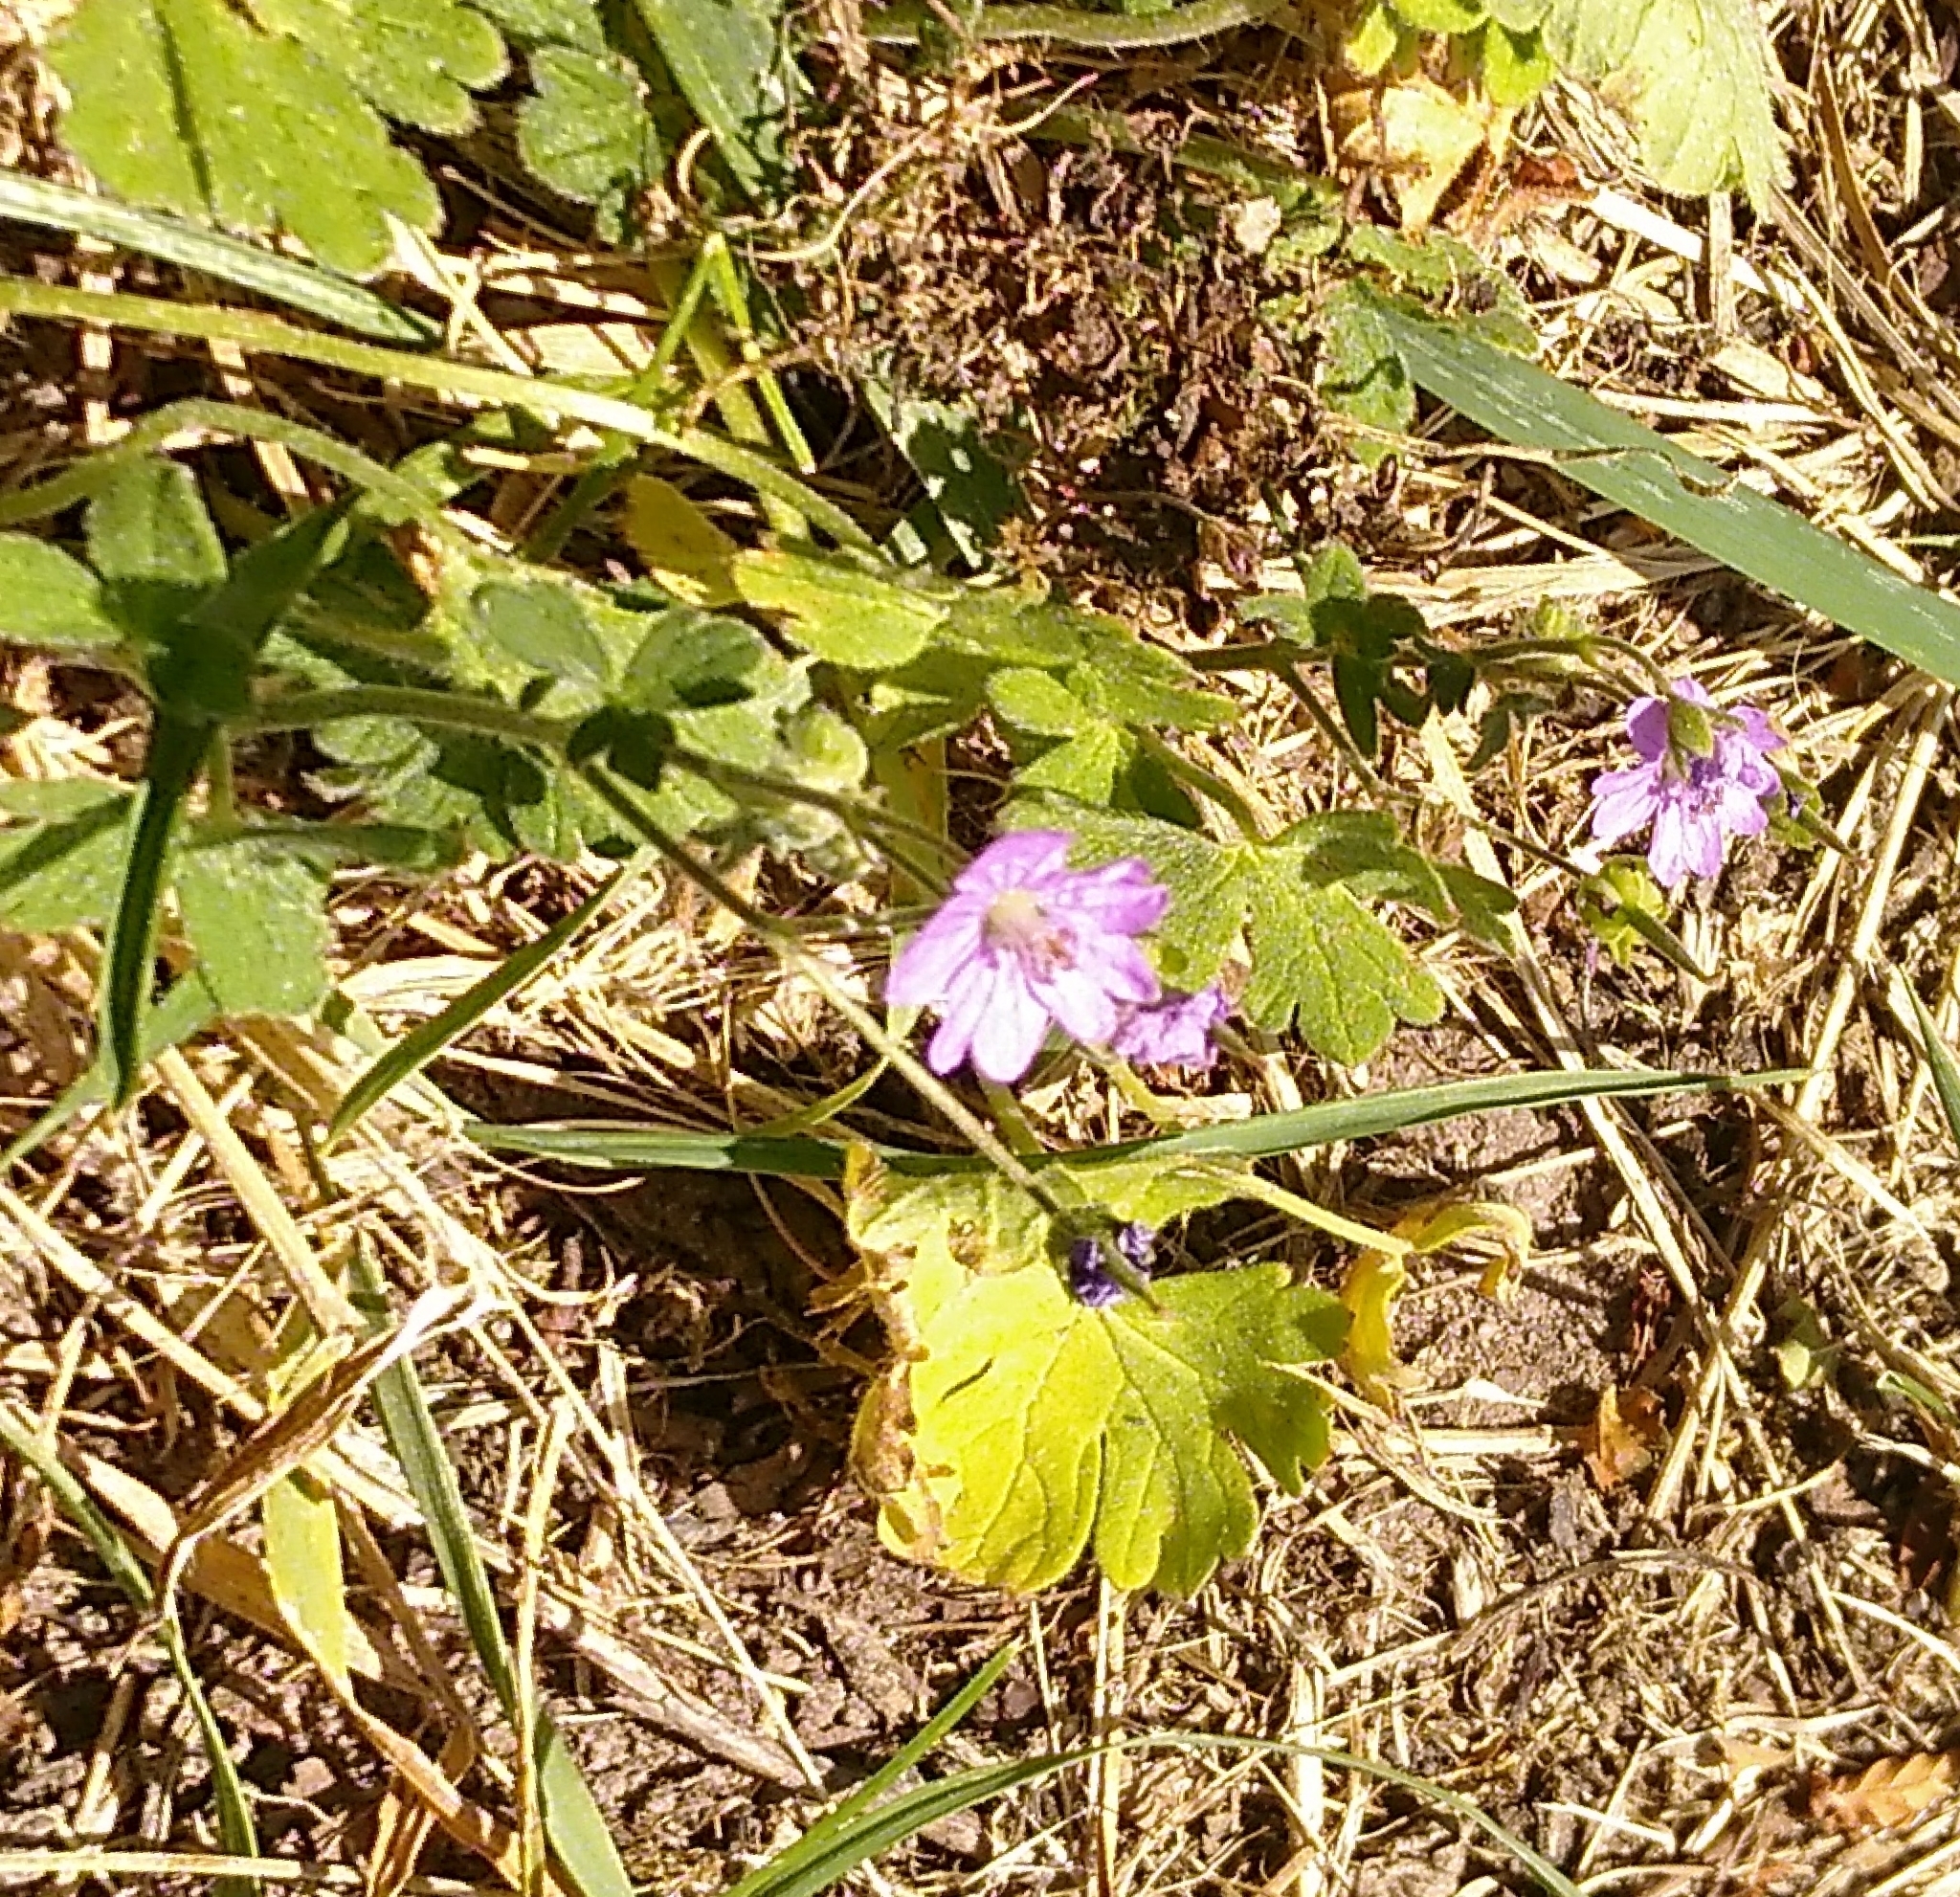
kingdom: Plantae
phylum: Tracheophyta
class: Magnoliopsida
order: Geraniales
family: Geraniaceae
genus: Geranium
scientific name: Geranium pyrenaicum
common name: Hedgerow crane's-bill
